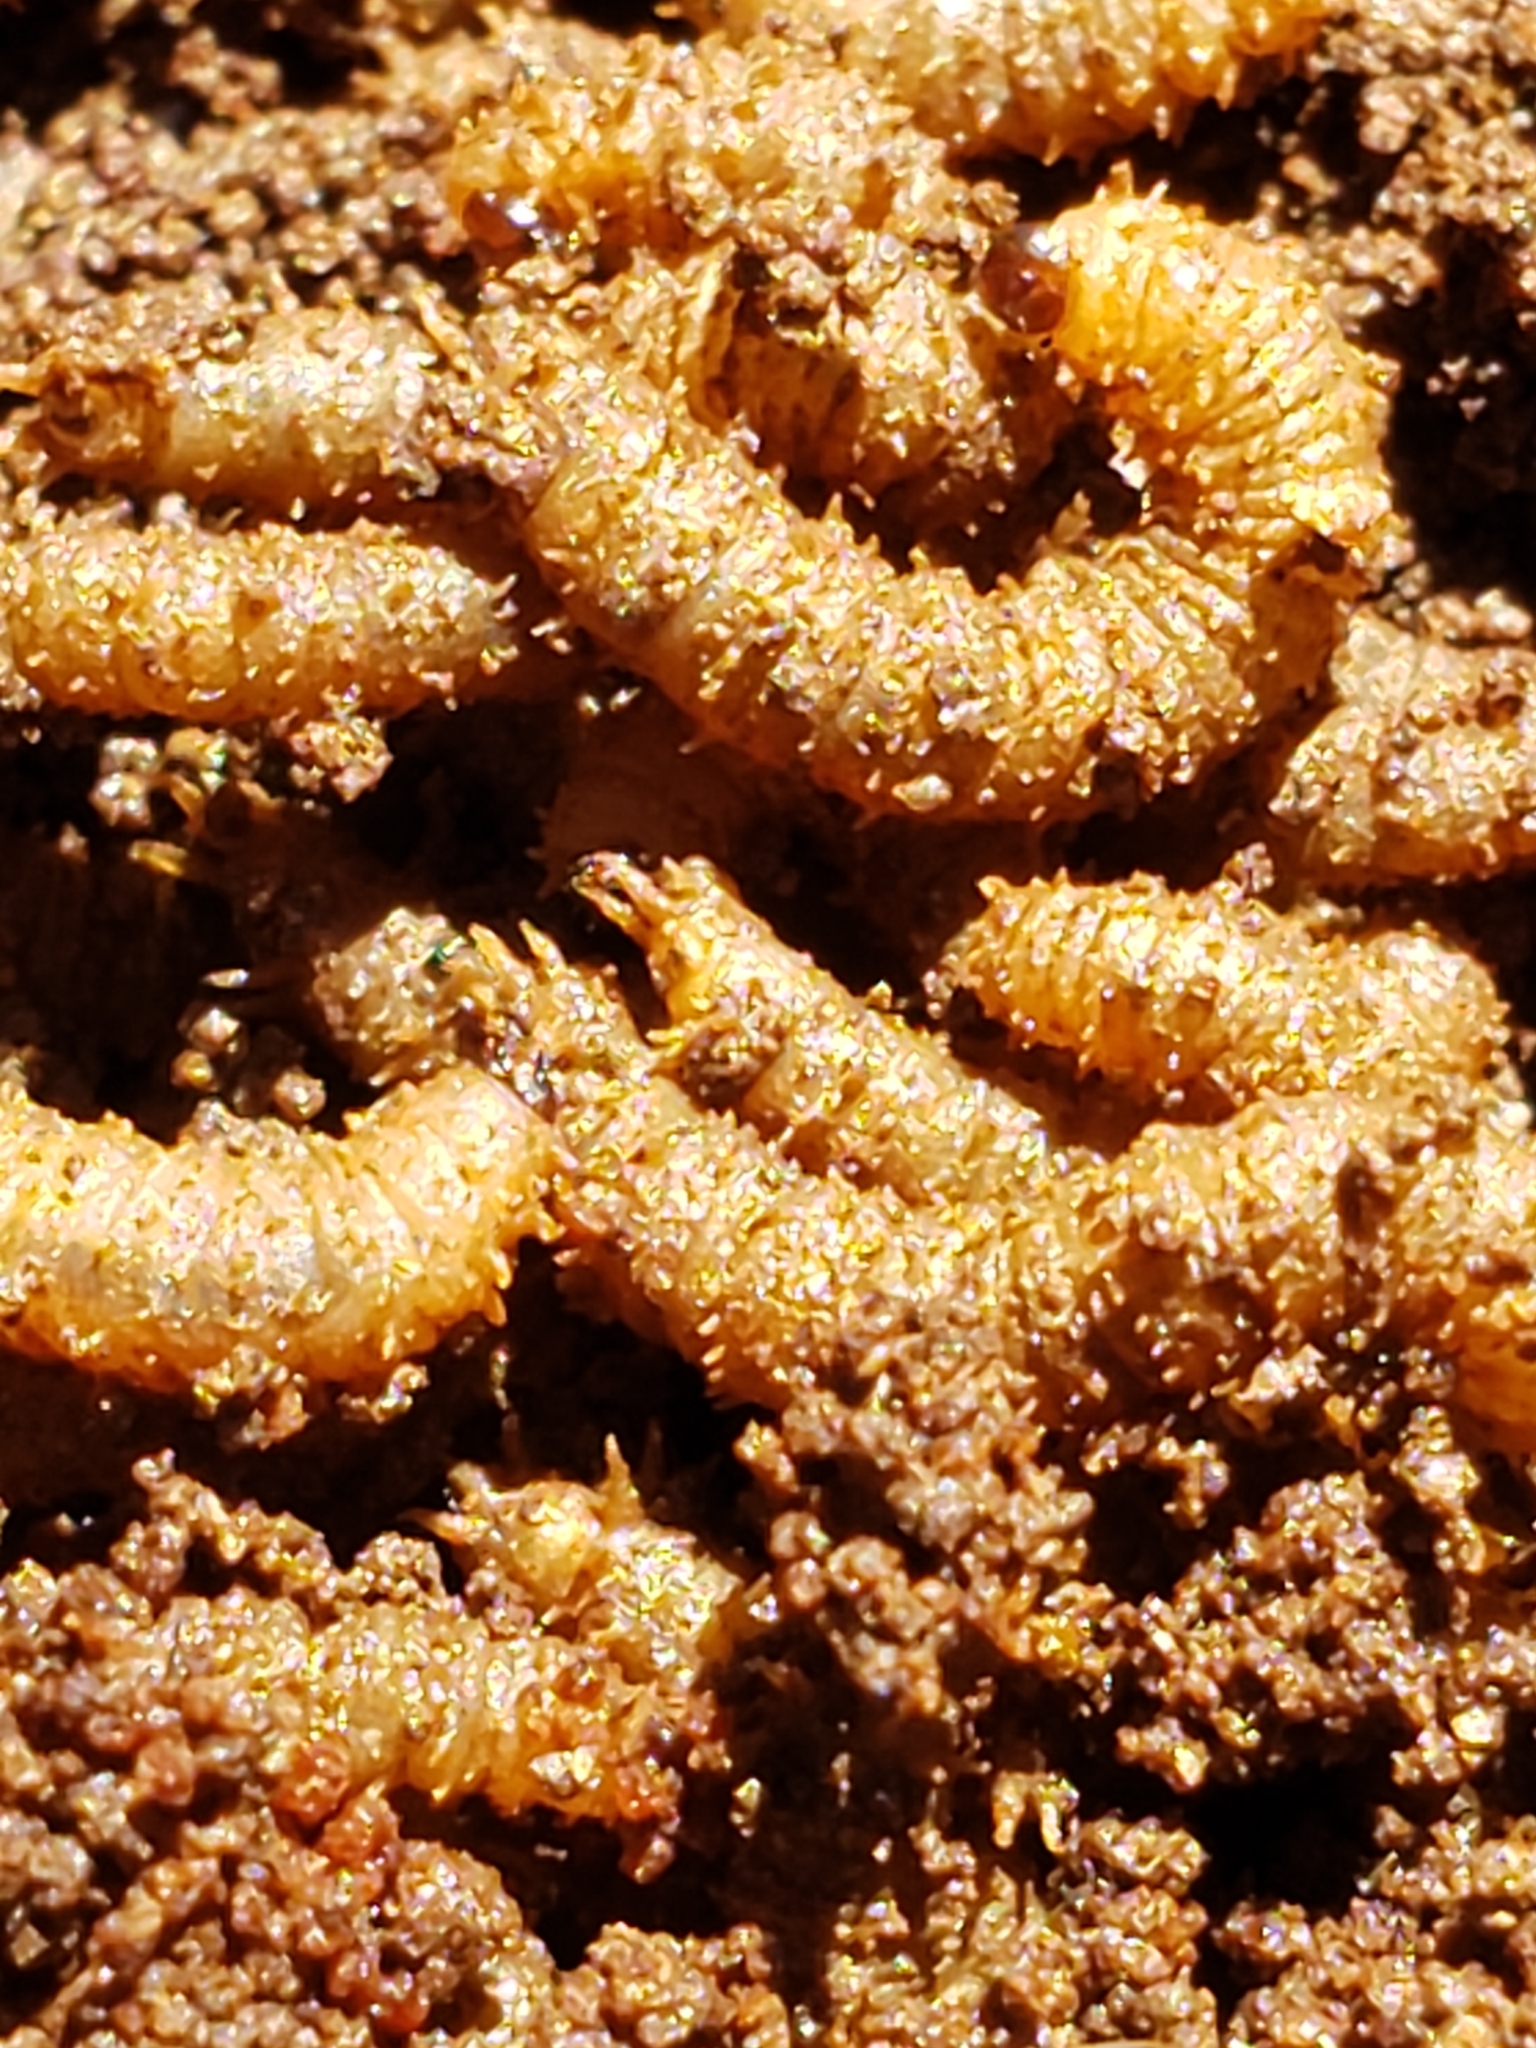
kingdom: Animalia
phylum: Arthropoda
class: Insecta
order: Diptera
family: Bibionidae
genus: Bibio
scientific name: Bibio
